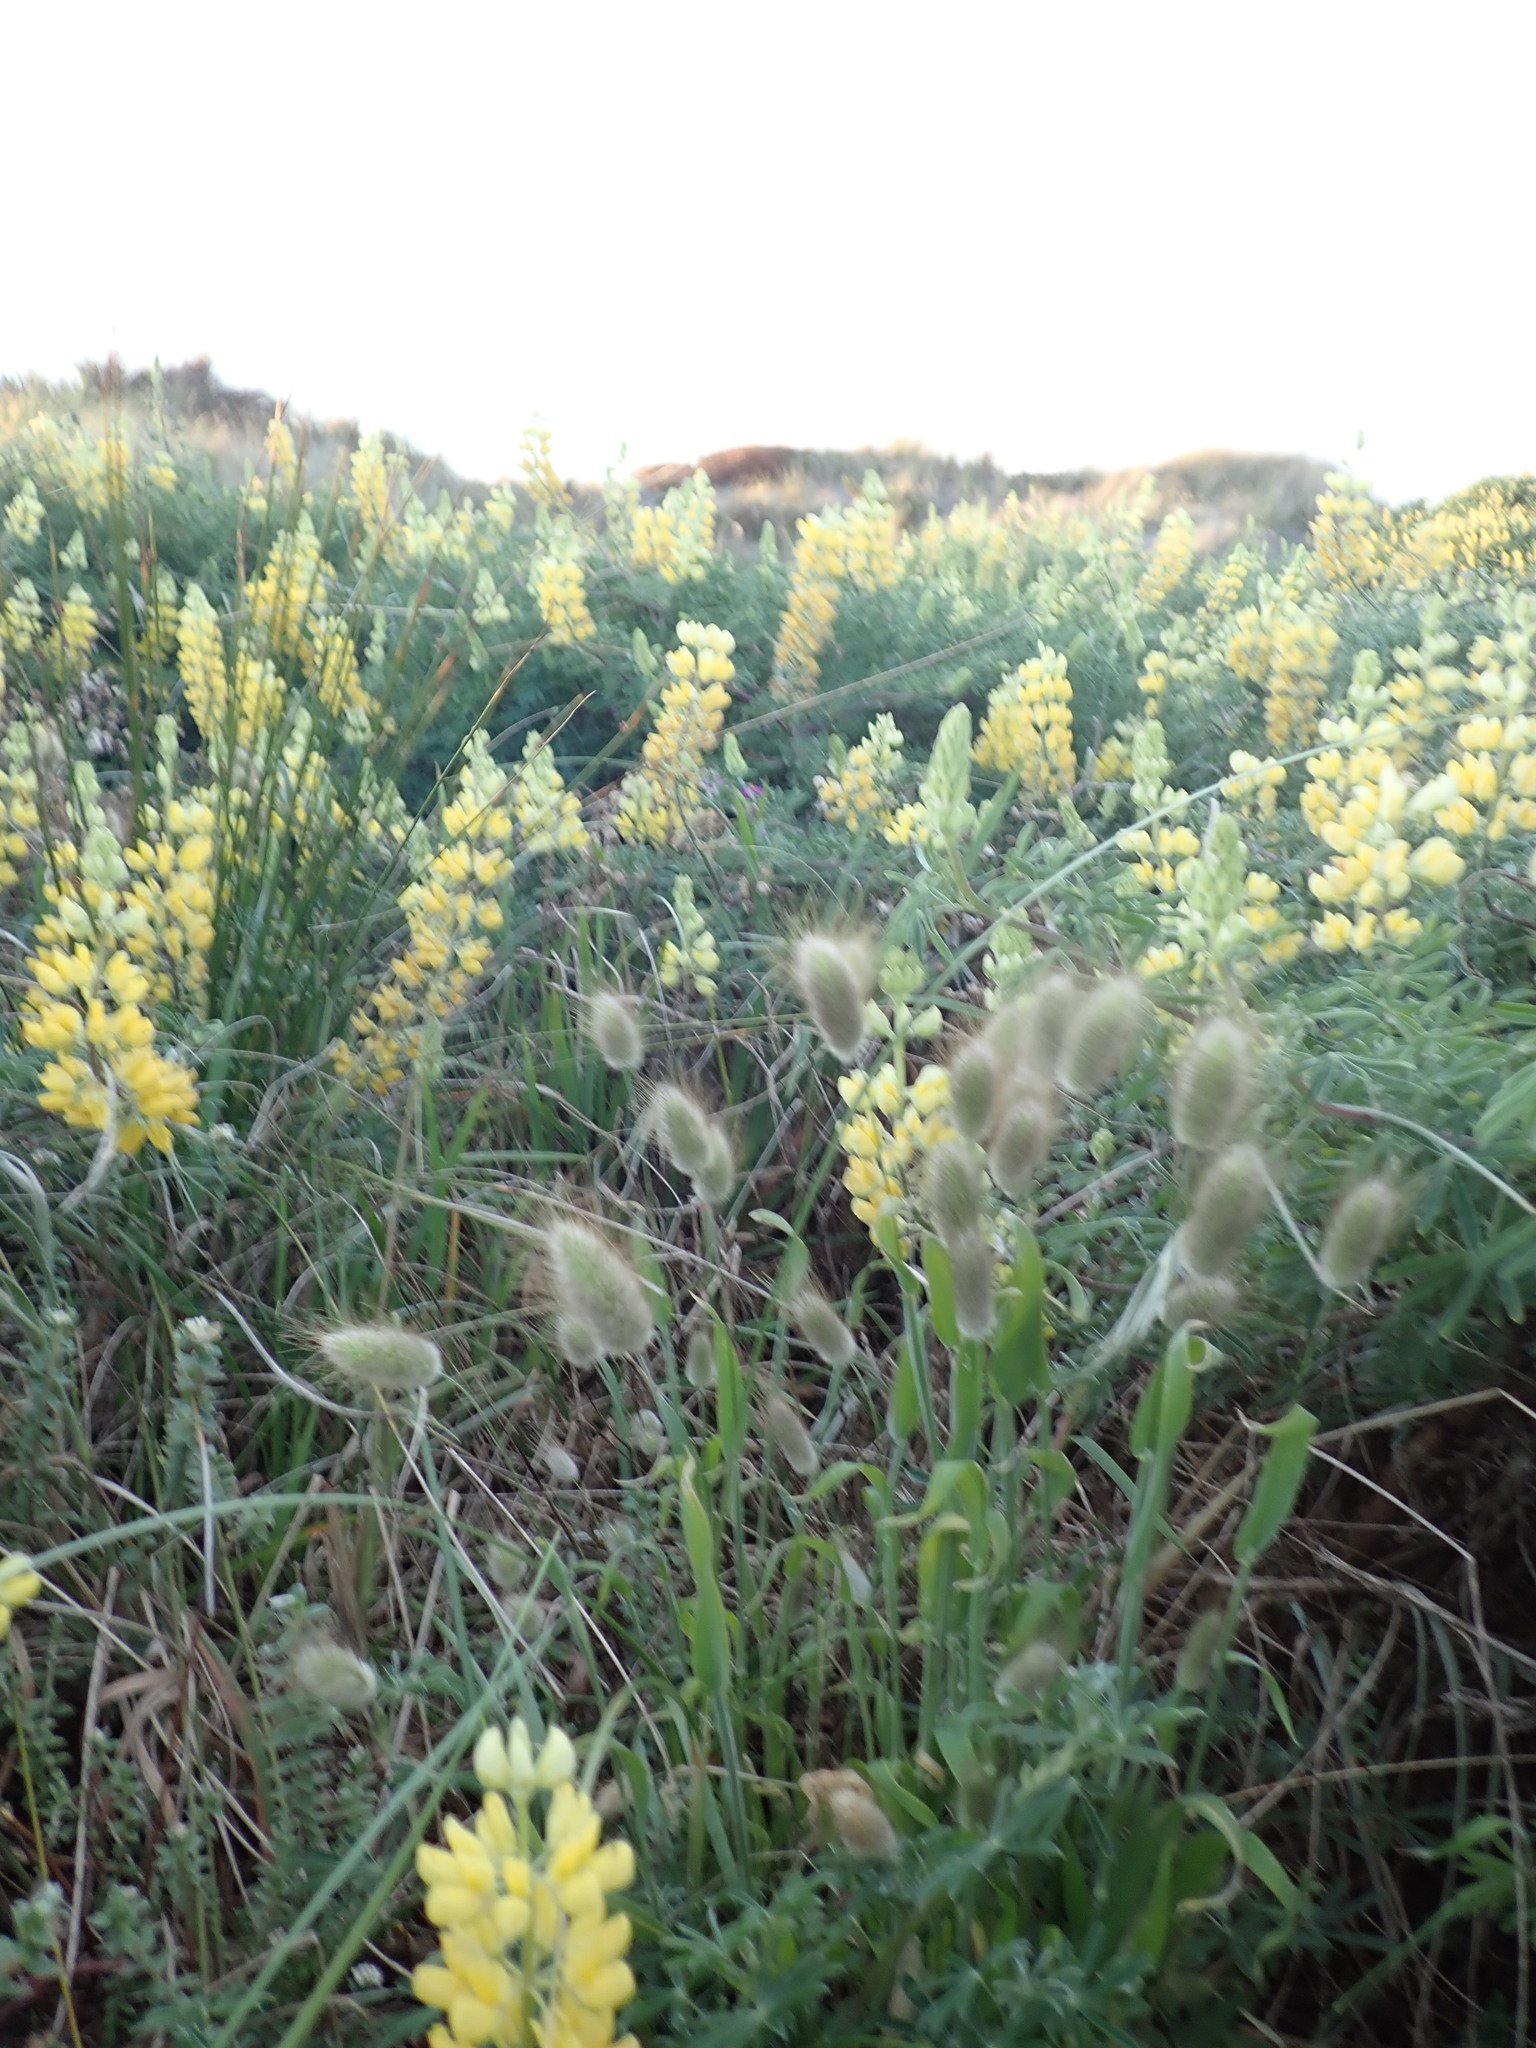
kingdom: Plantae
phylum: Tracheophyta
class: Liliopsida
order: Poales
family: Poaceae
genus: Lagurus
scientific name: Lagurus ovatus
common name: Hare's-tail
